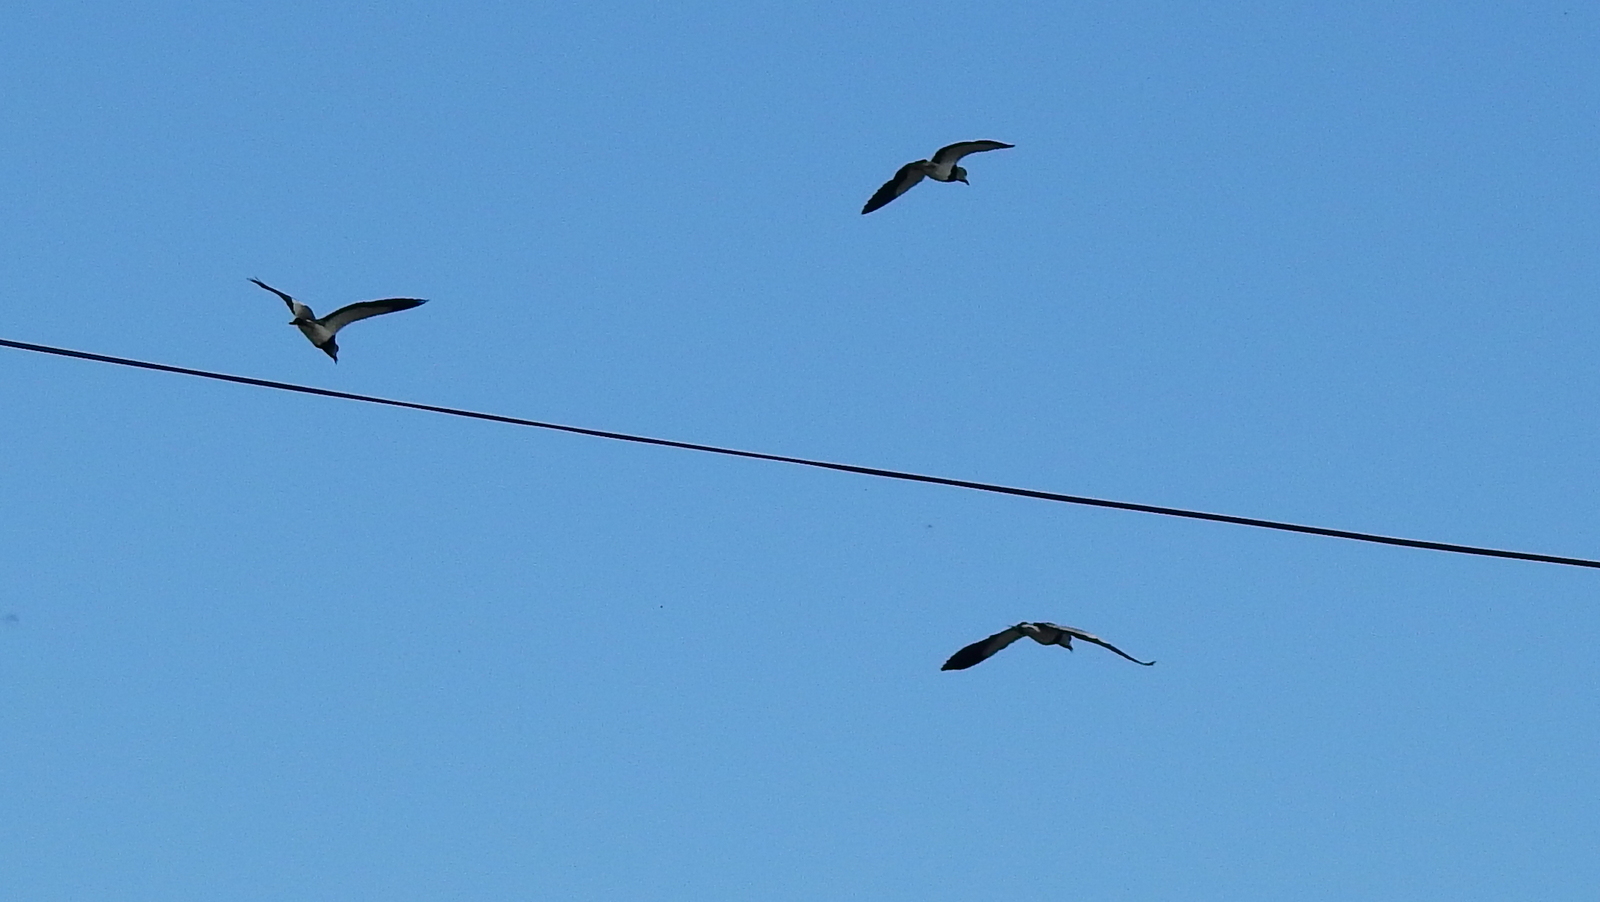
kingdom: Animalia
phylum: Chordata
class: Aves
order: Charadriiformes
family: Charadriidae
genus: Vanellus
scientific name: Vanellus chilensis
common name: Southern lapwing
